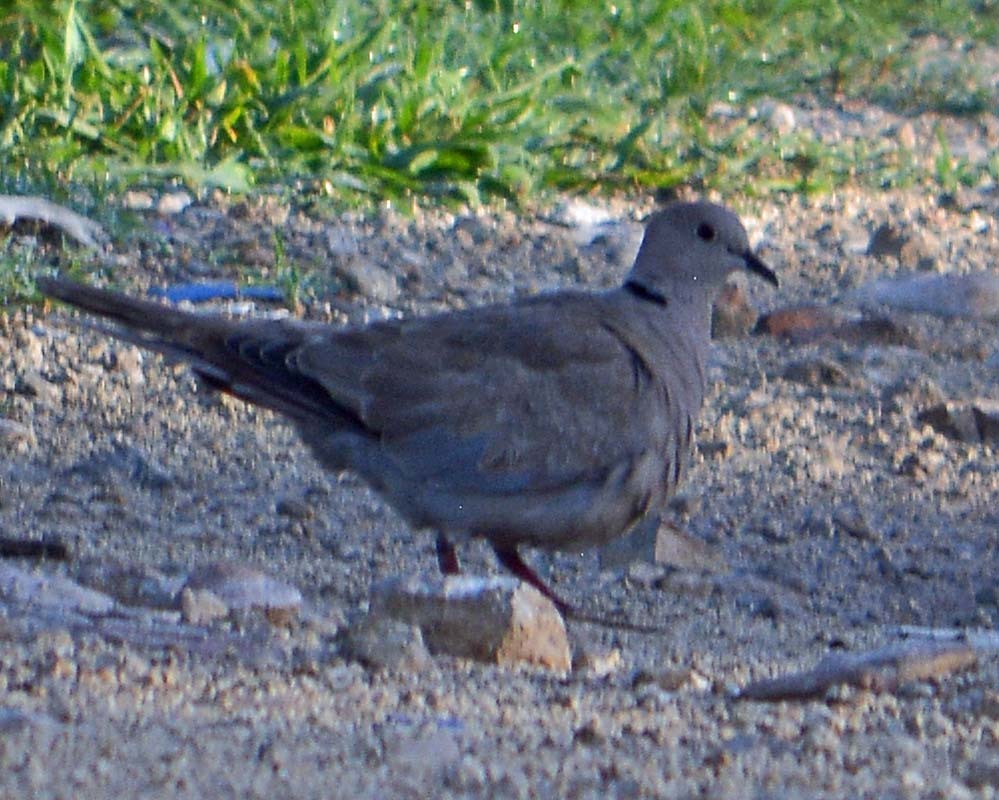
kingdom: Animalia
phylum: Chordata
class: Aves
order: Columbiformes
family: Columbidae
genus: Streptopelia
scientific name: Streptopelia decaocto
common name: Eurasian collared dove
